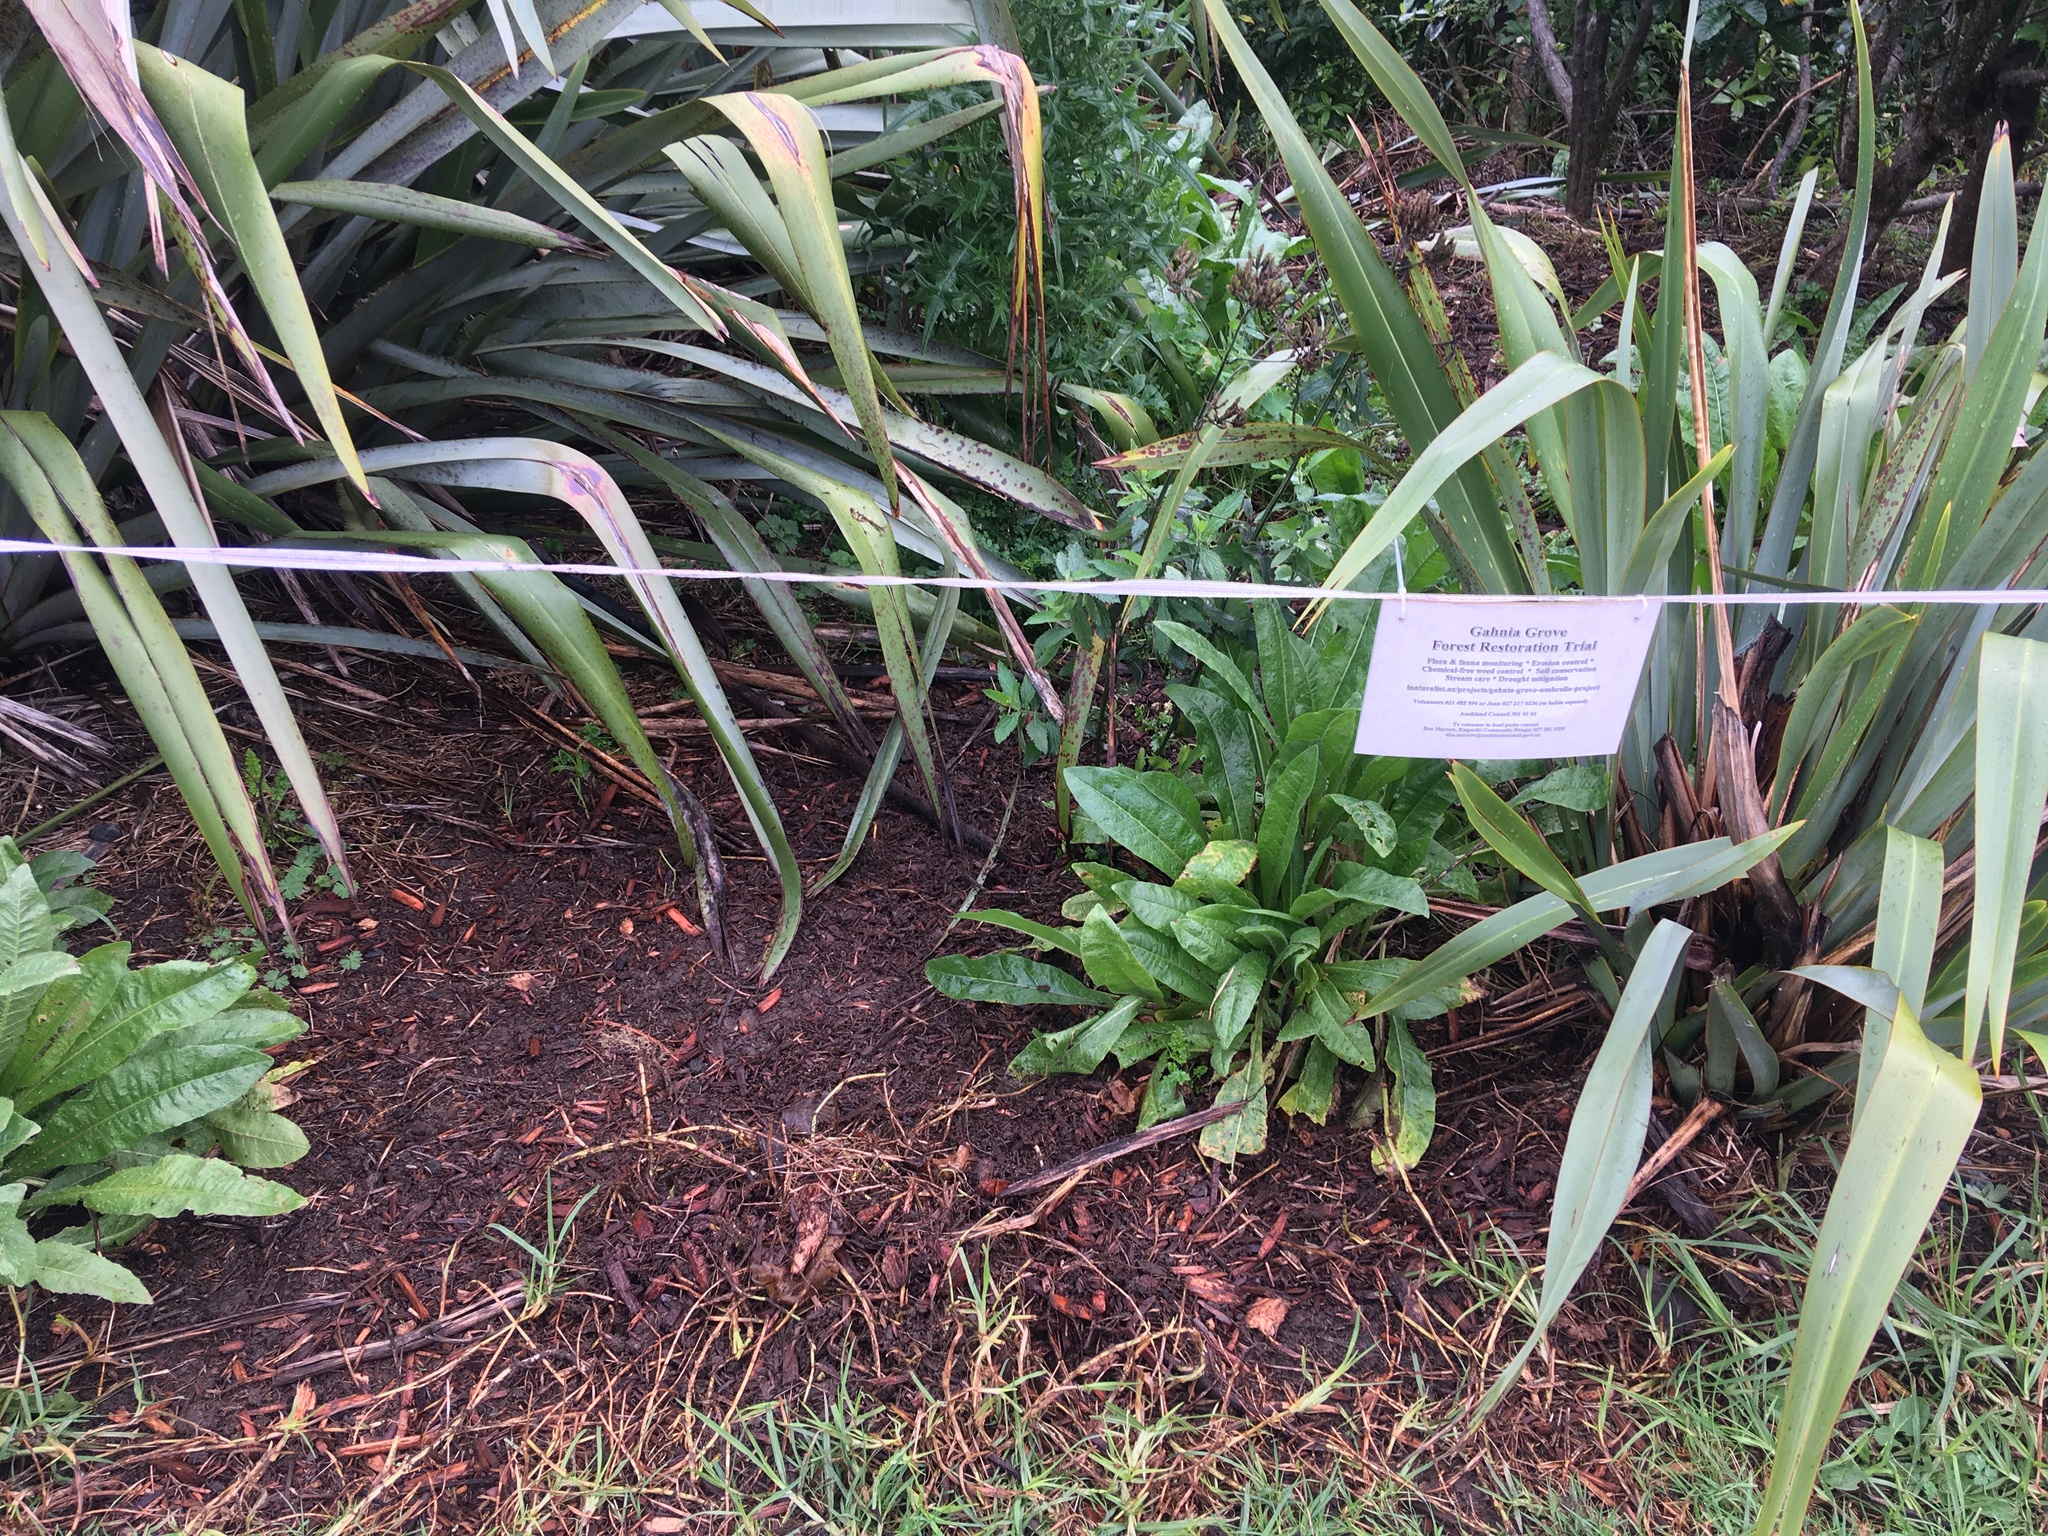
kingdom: Plantae
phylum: Tracheophyta
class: Magnoliopsida
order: Lamiales
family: Verbenaceae
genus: Verbena
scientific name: Verbena incompta
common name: Purpletop vervain
